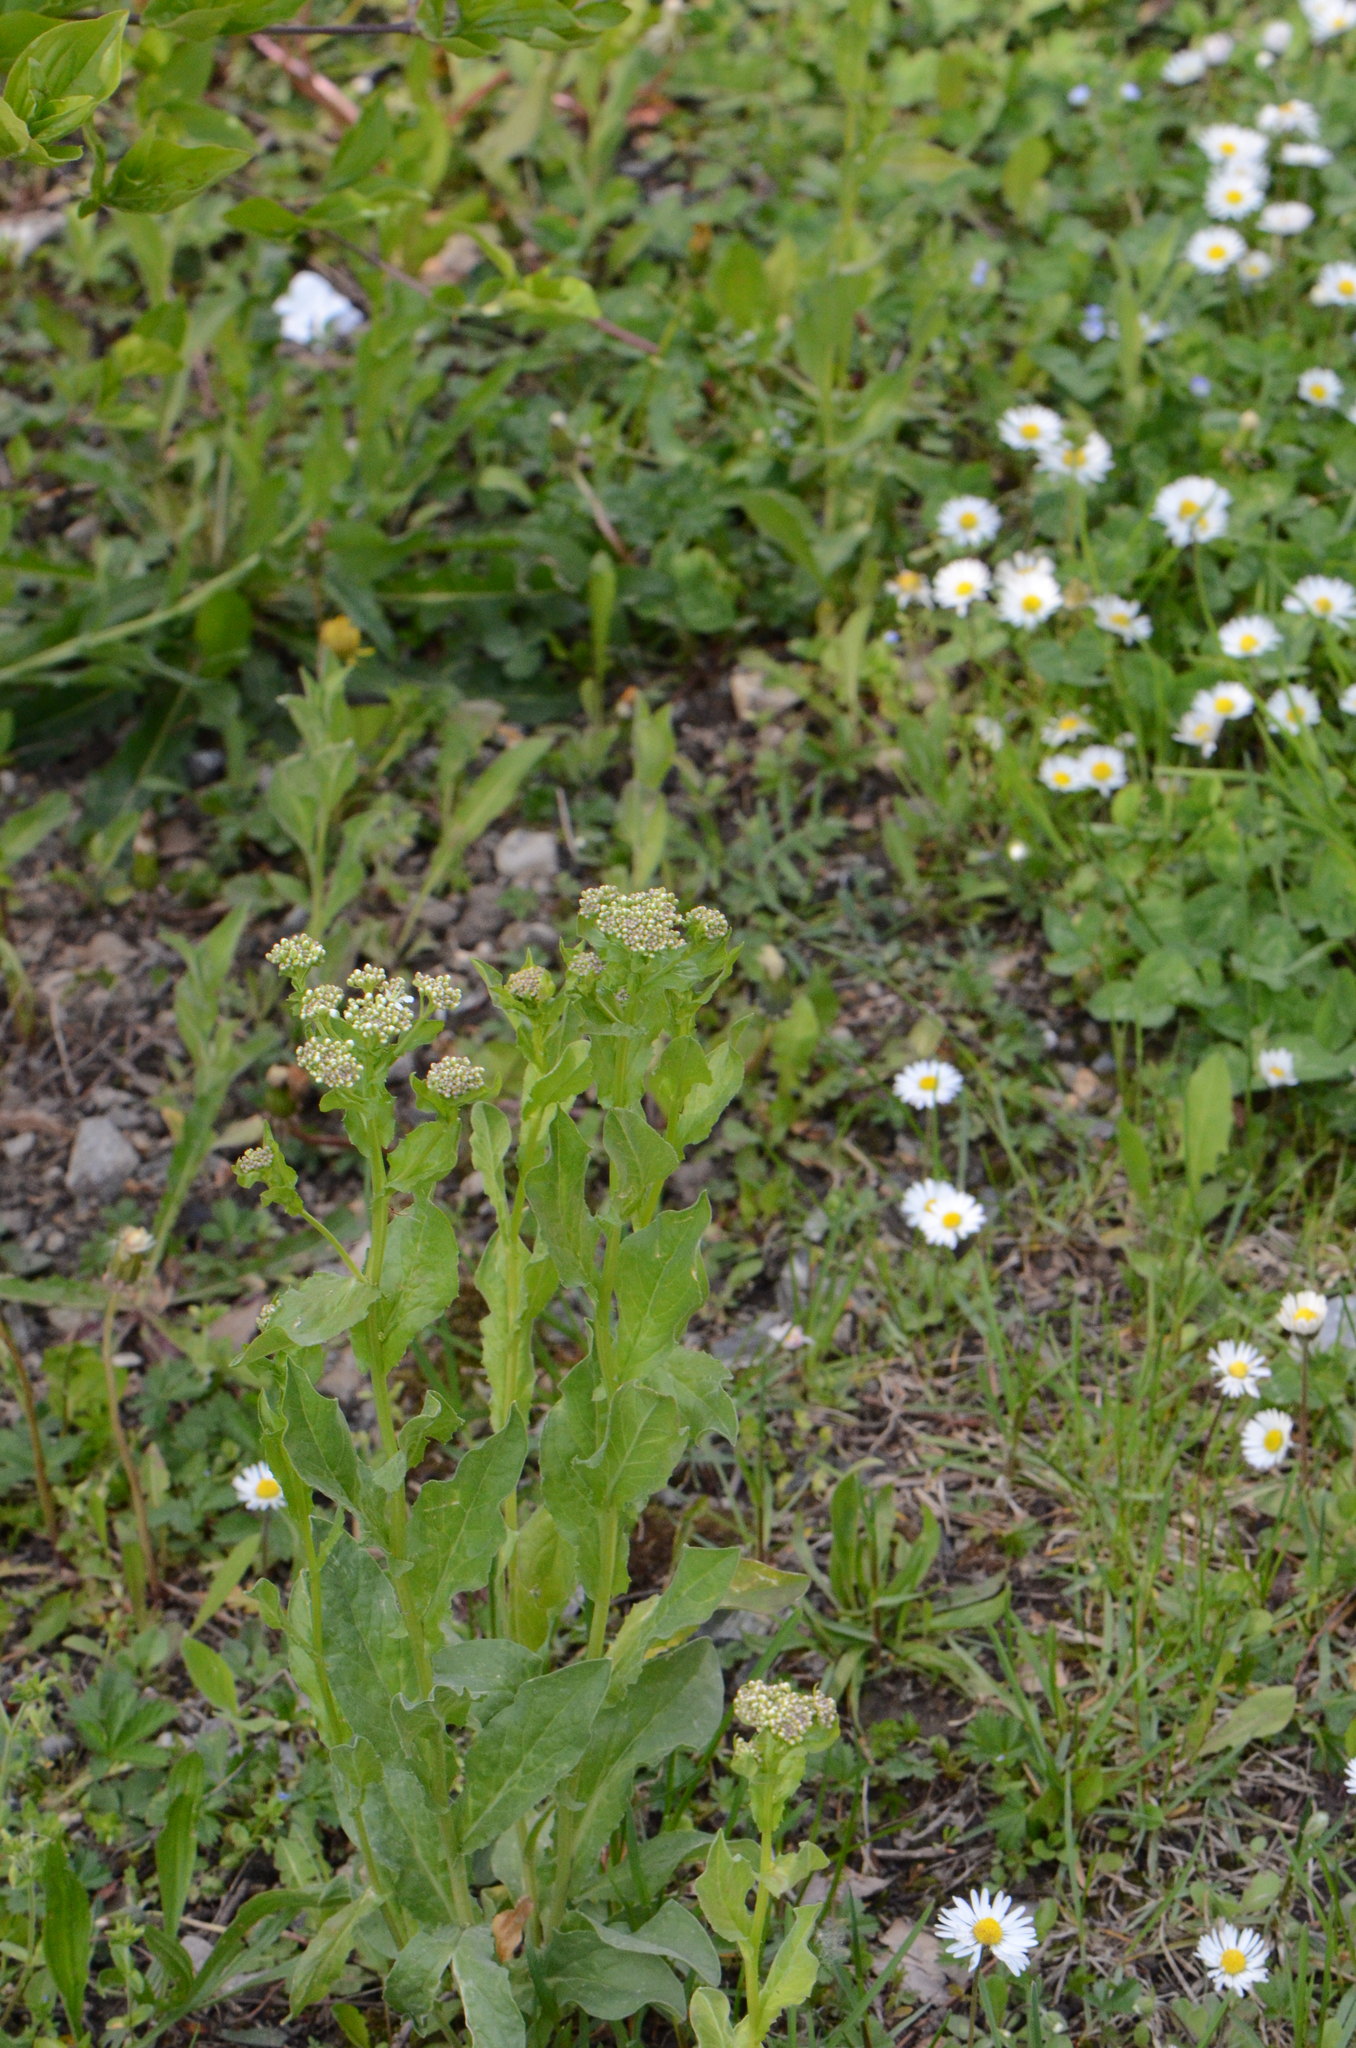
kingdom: Plantae
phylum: Tracheophyta
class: Magnoliopsida
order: Brassicales
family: Brassicaceae
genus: Lepidium
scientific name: Lepidium draba
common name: Hoary cress
